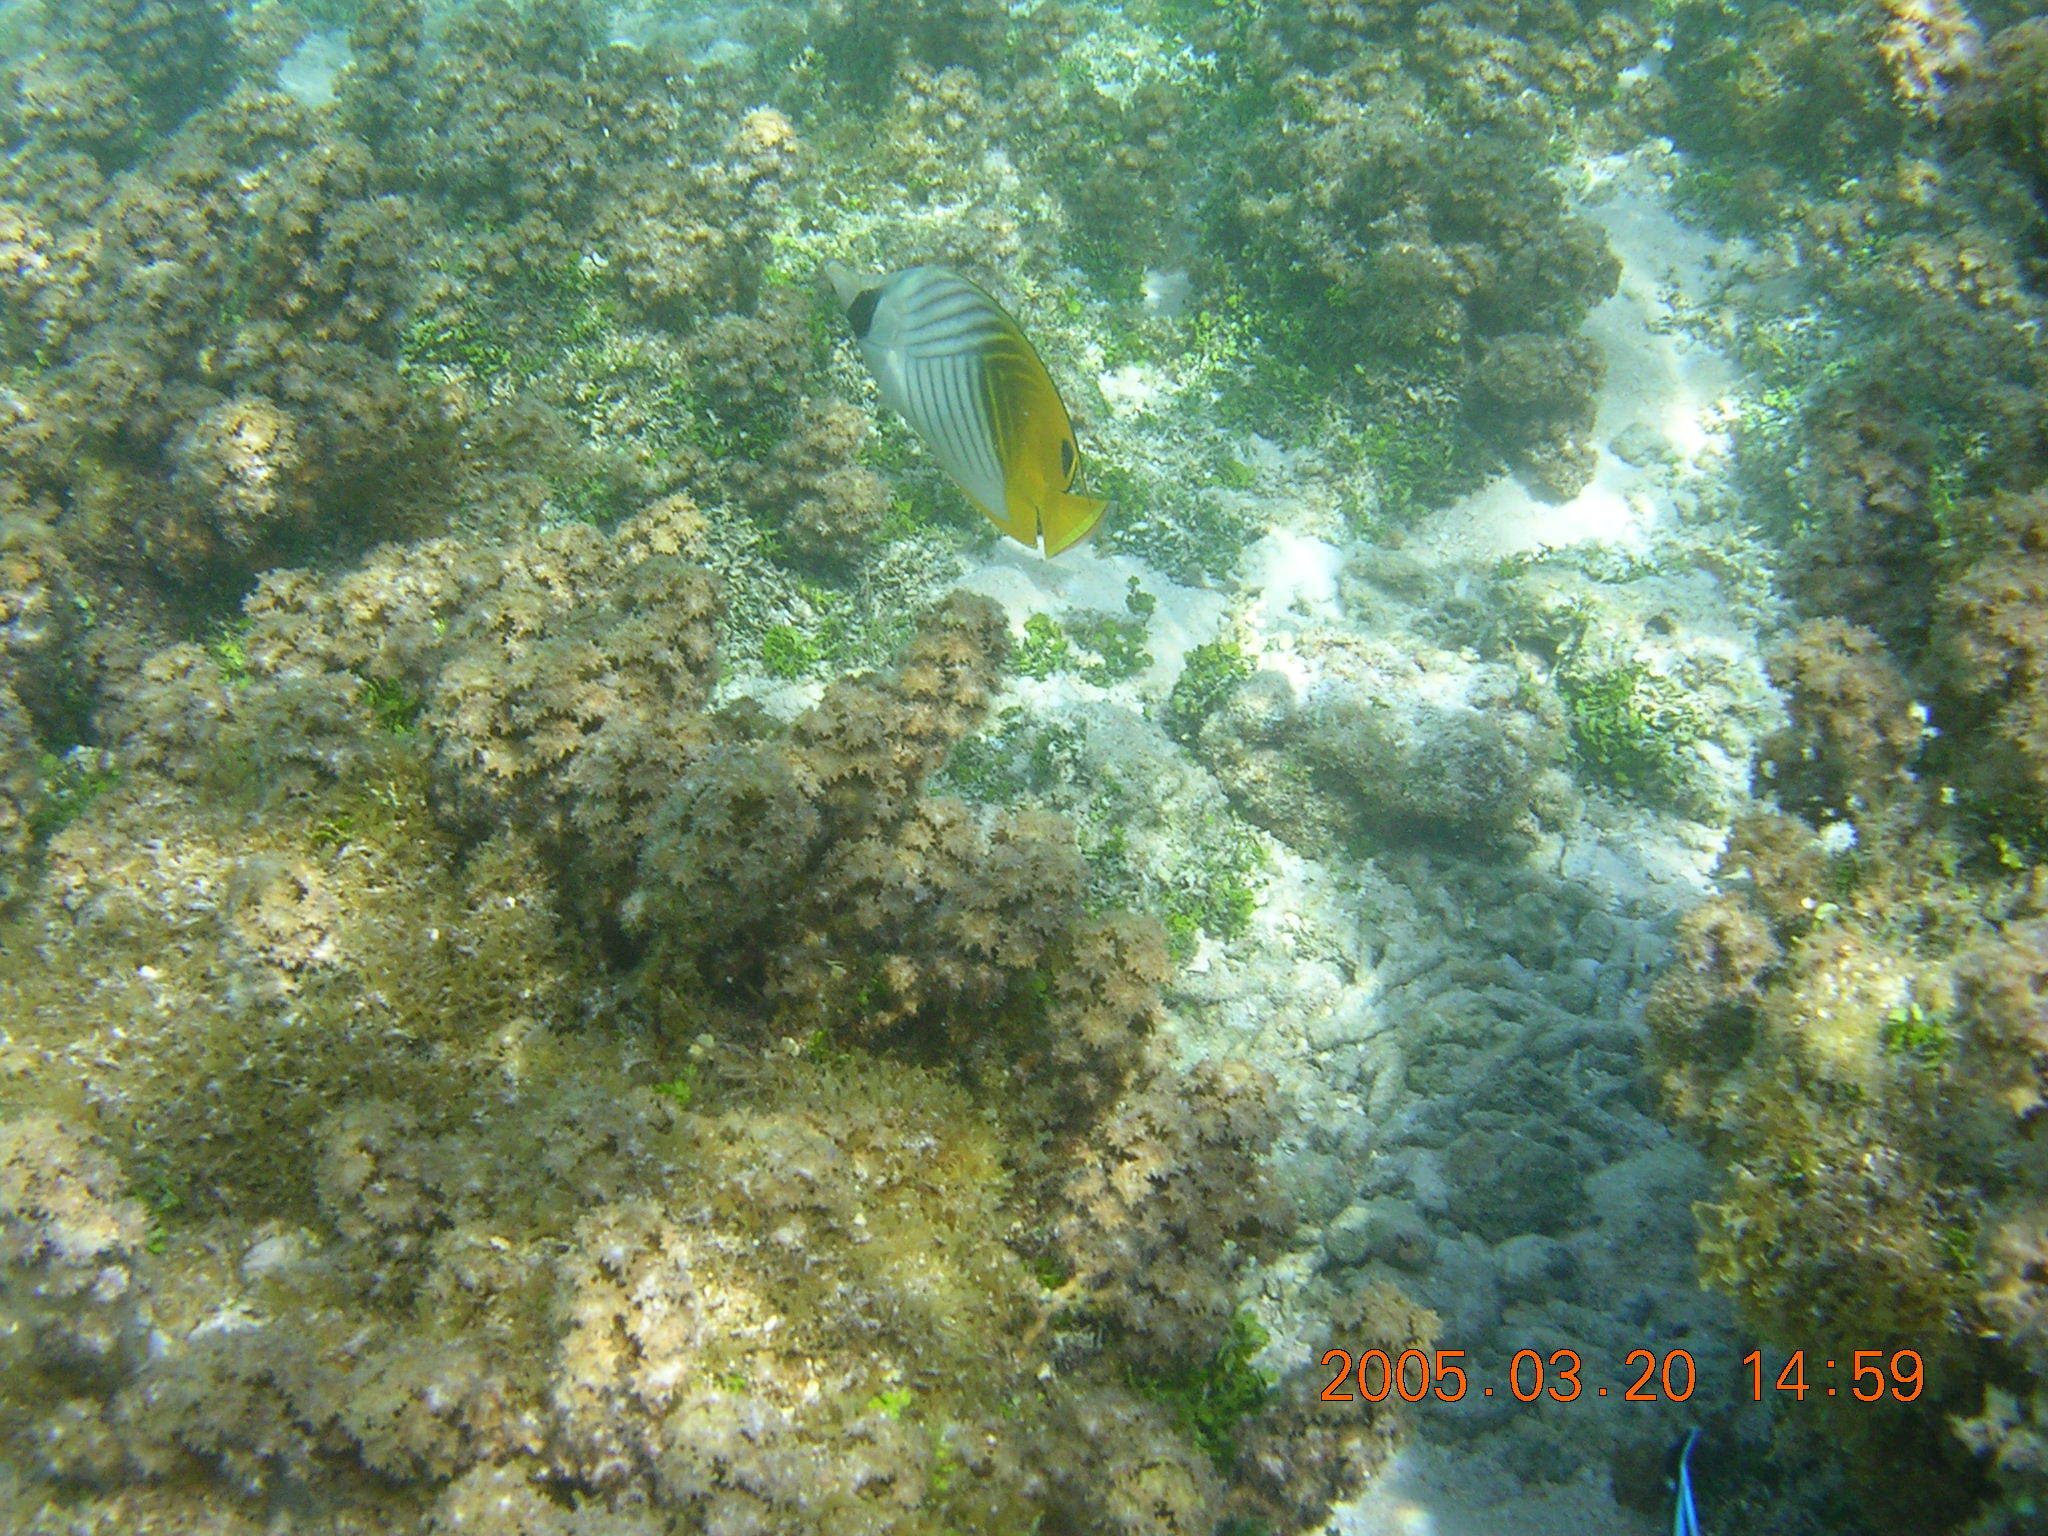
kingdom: Animalia
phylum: Chordata
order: Perciformes
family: Chaetodontidae
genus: Chaetodon
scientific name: Chaetodon auriga
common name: Threadfin butterflyfish
